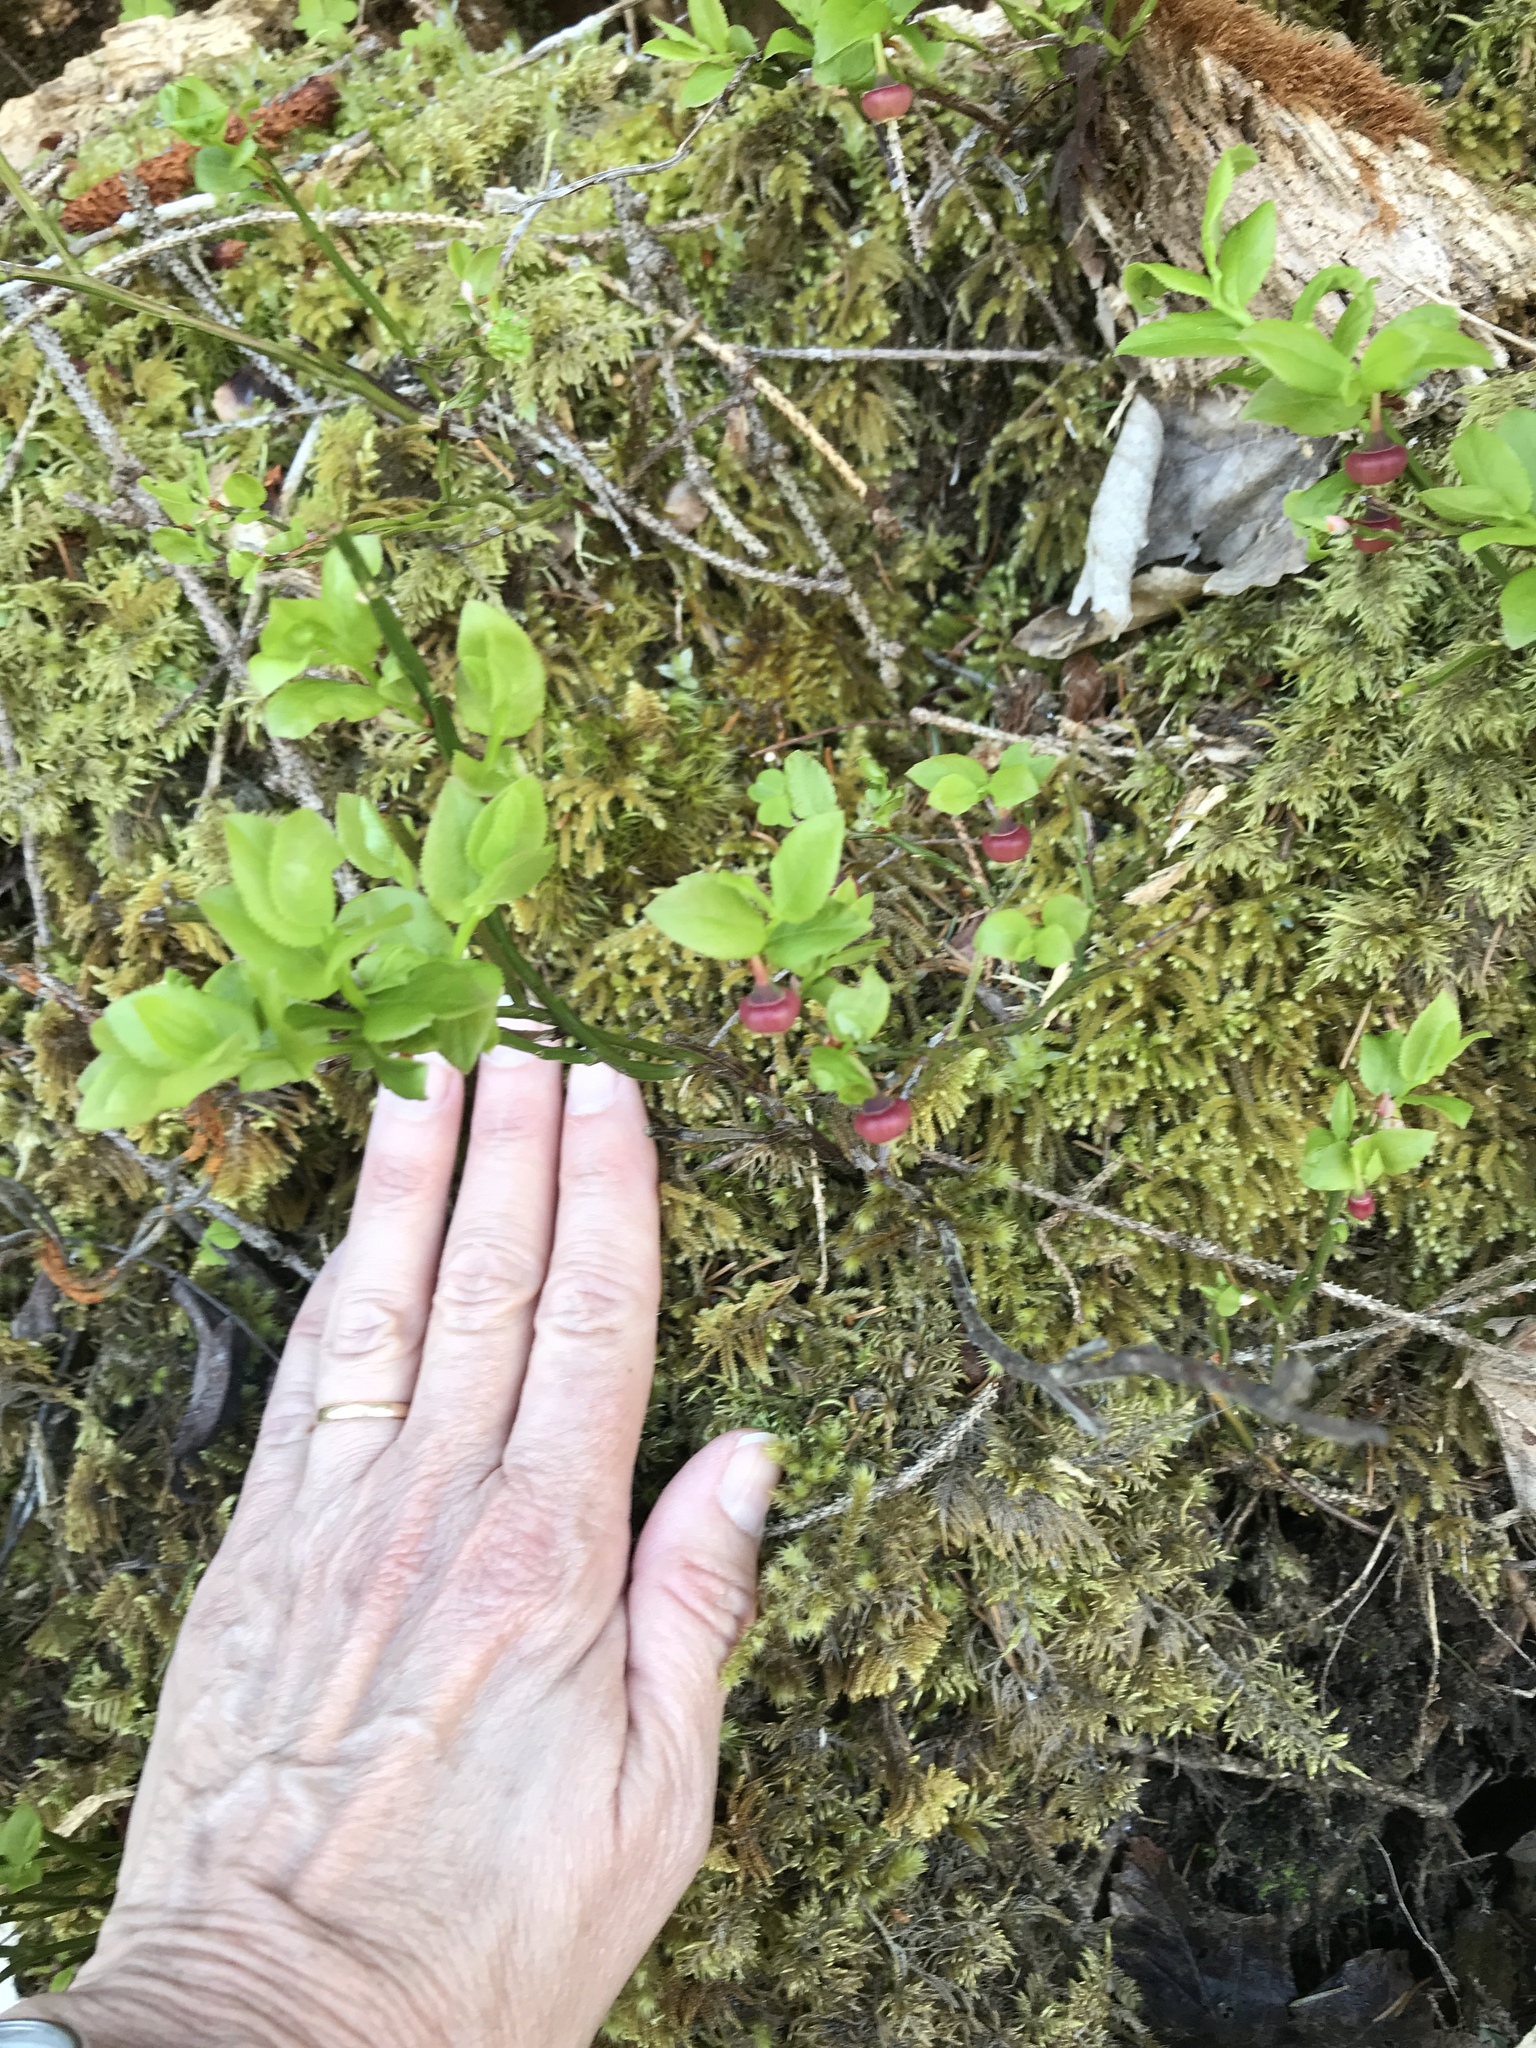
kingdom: Plantae
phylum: Tracheophyta
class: Magnoliopsida
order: Ericales
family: Ericaceae
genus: Vaccinium
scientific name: Vaccinium myrtillus
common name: Bilberry
